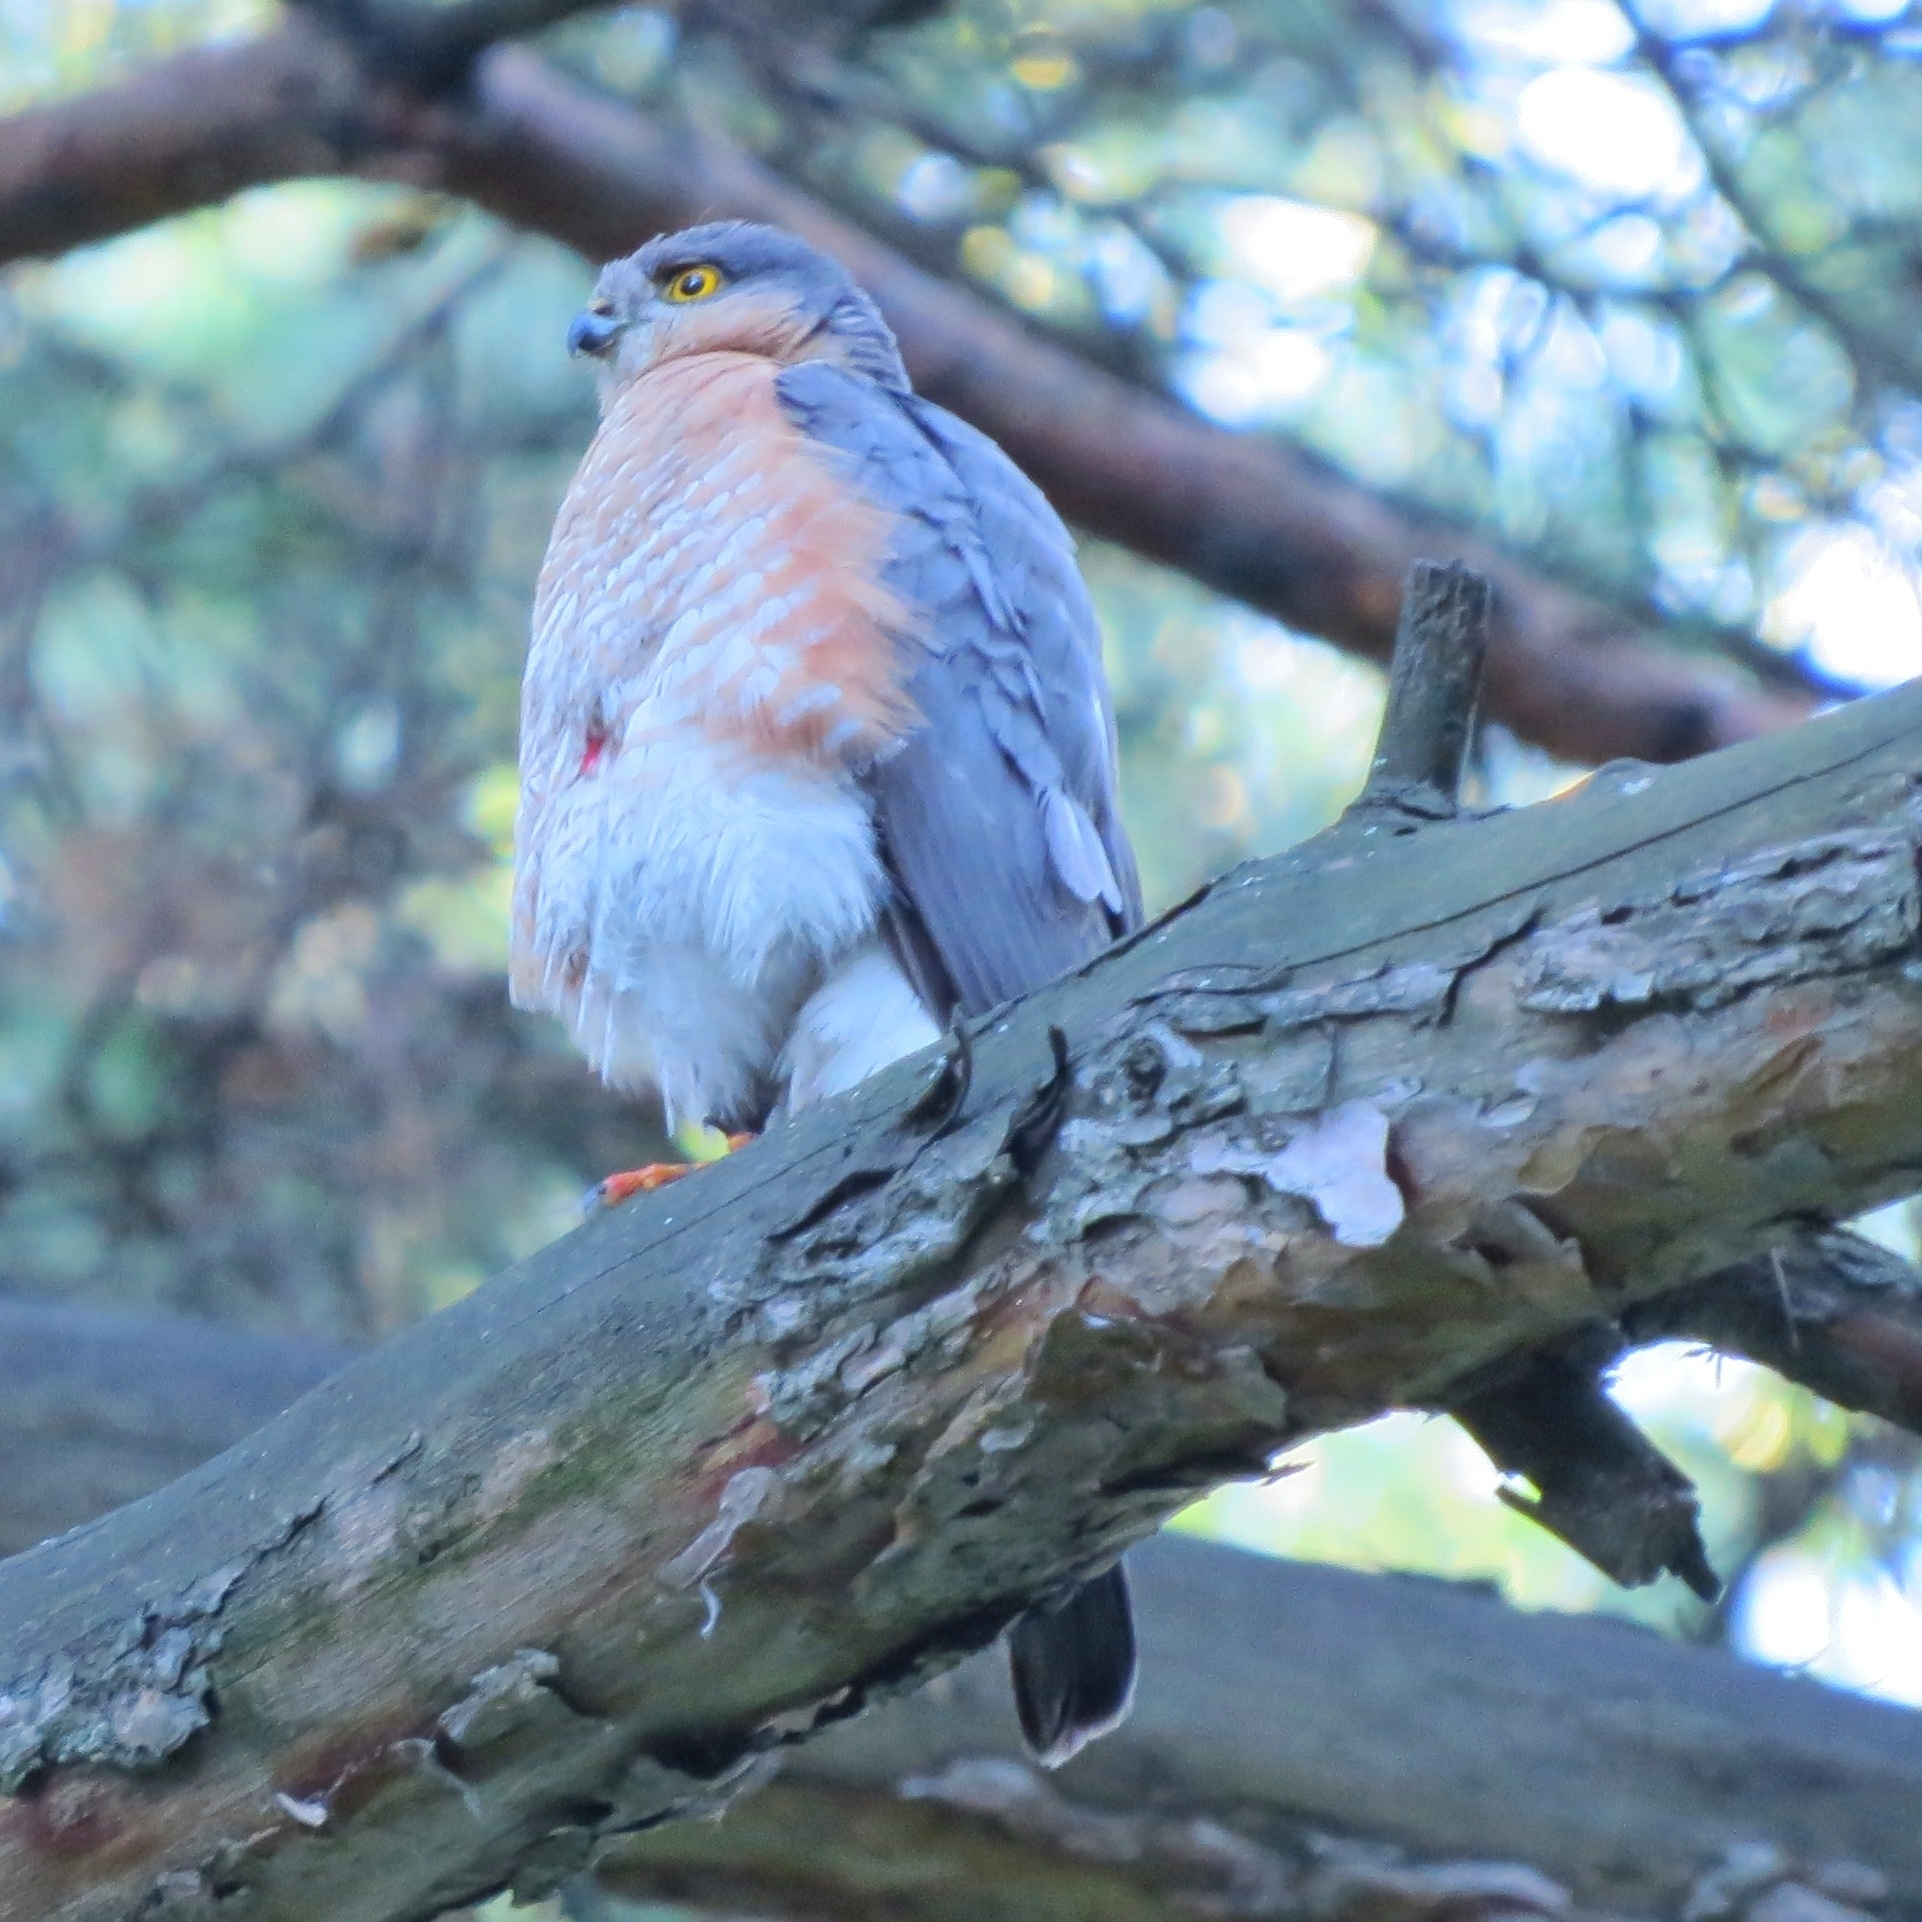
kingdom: Animalia
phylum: Chordata
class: Aves
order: Accipitriformes
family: Accipitridae
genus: Accipiter
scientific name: Accipiter nisus
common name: Eurasian sparrowhawk
